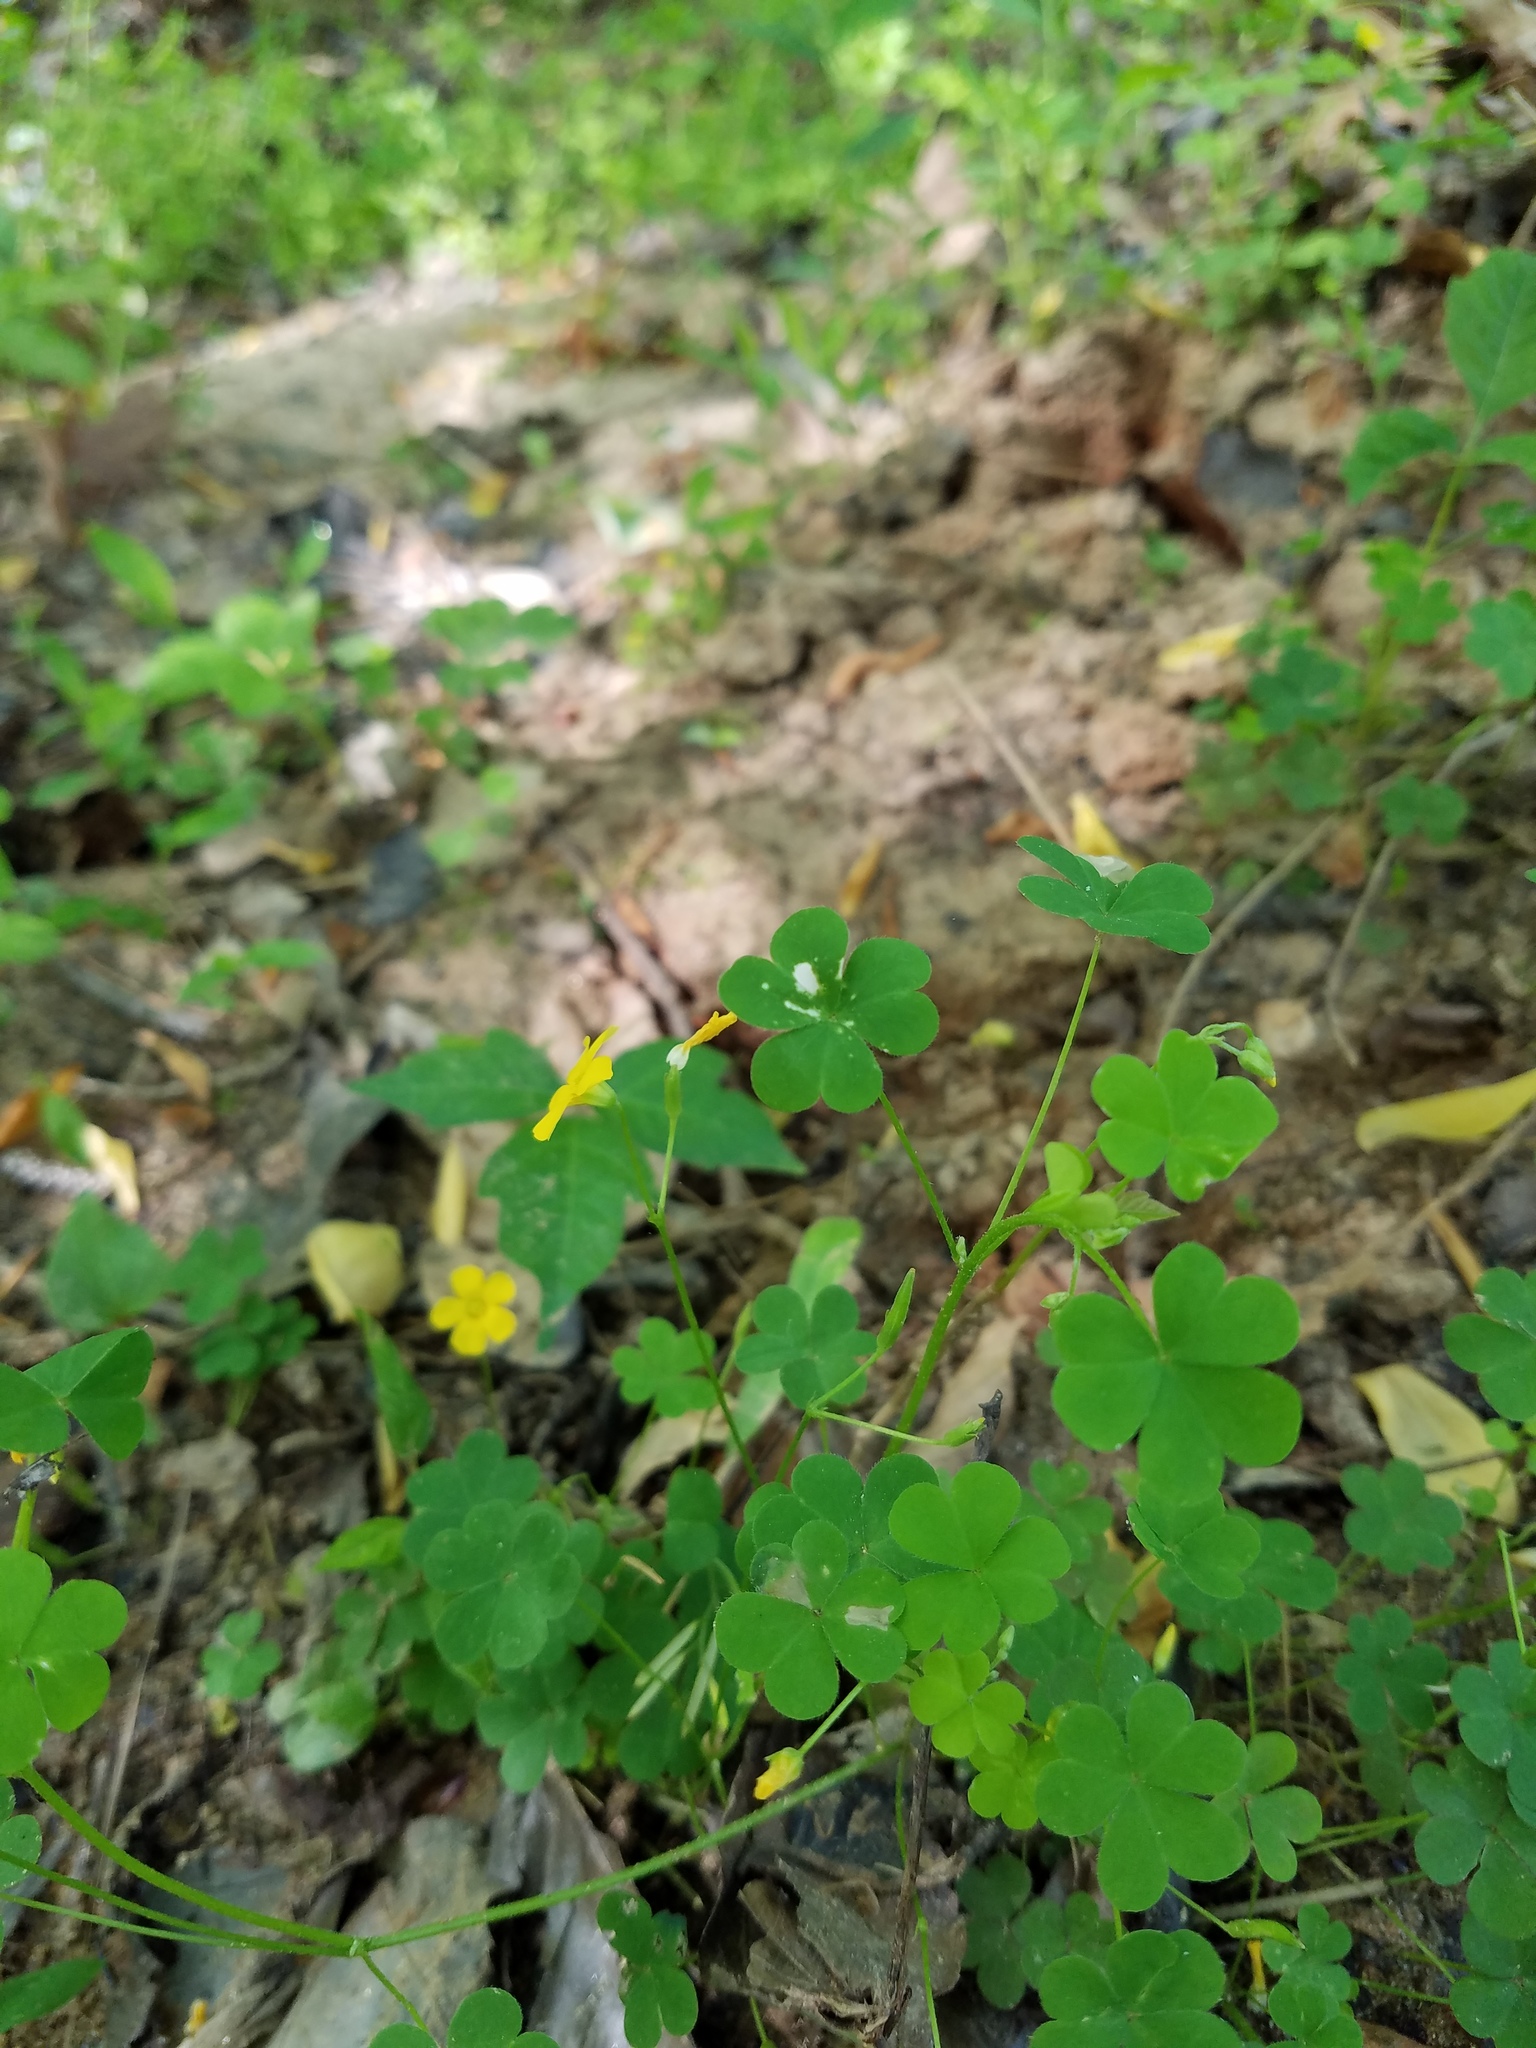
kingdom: Plantae
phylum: Tracheophyta
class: Magnoliopsida
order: Oxalidales
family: Oxalidaceae
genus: Oxalis
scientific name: Oxalis florida
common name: Flowering yellow woodsorrel
